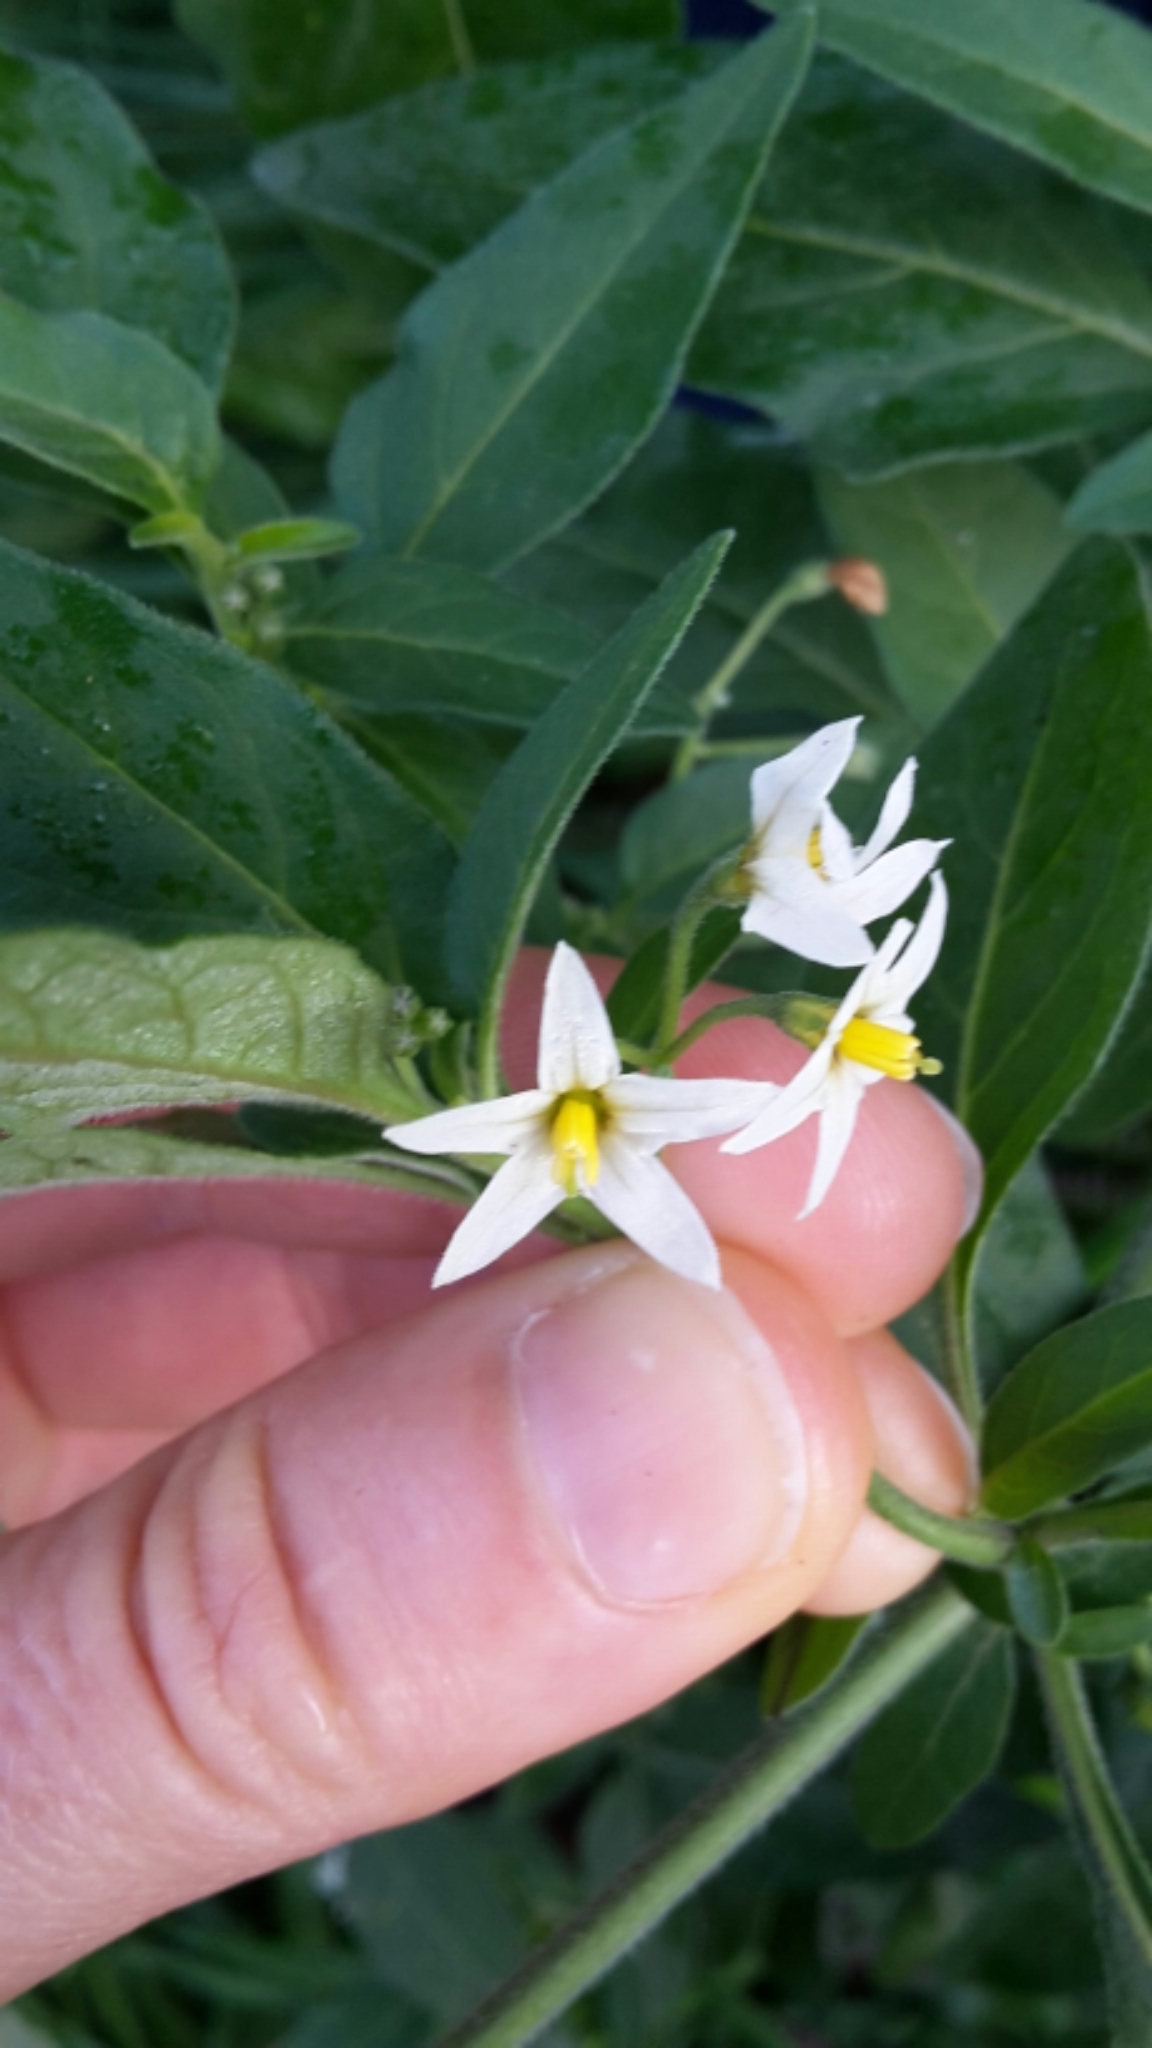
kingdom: Plantae
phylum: Tracheophyta
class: Magnoliopsida
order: Solanales
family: Solanaceae
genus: Solanum
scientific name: Solanum chenopodioides
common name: Tall nightshade
